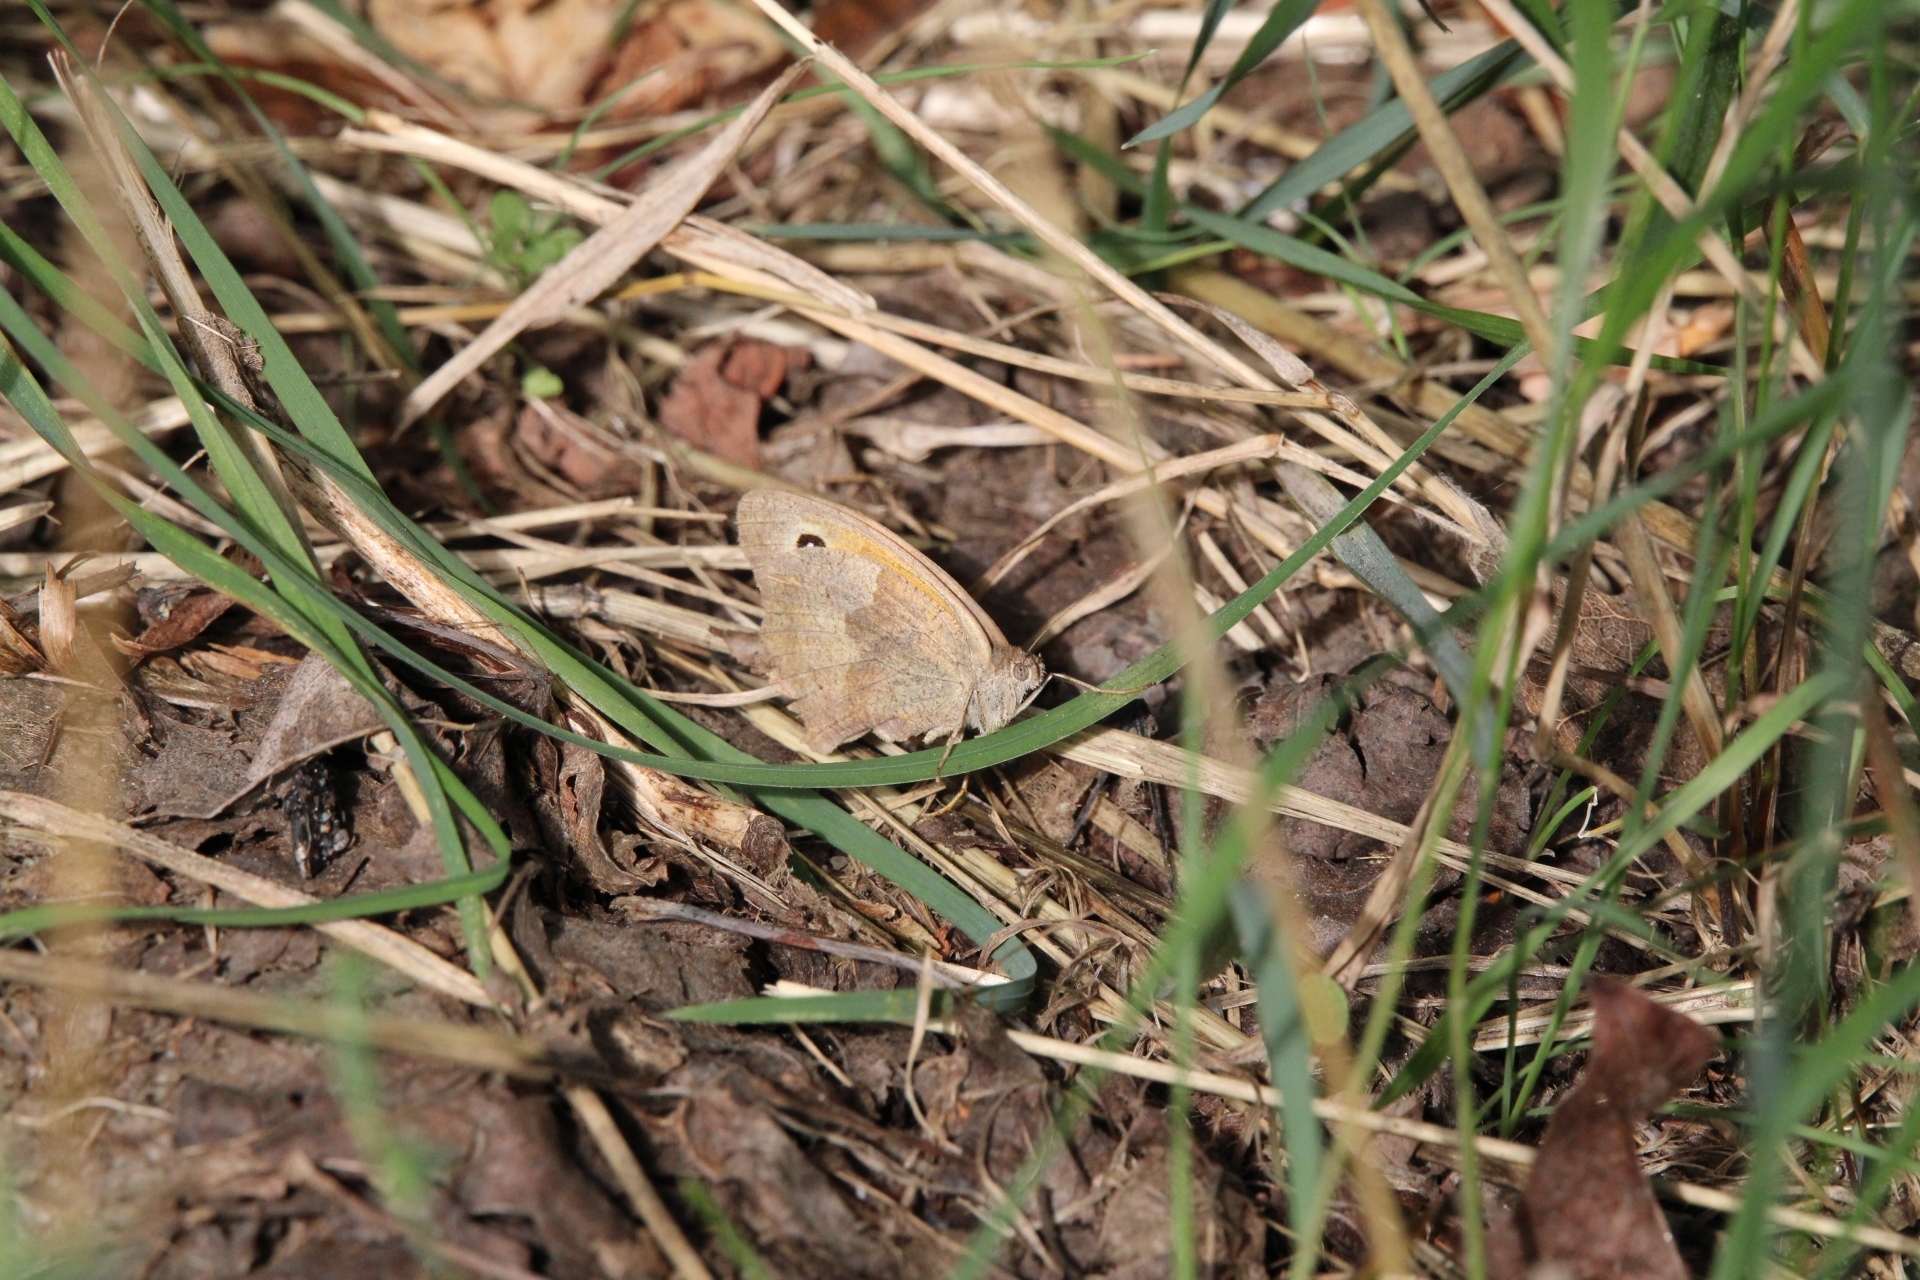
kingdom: Animalia
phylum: Arthropoda
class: Insecta
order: Lepidoptera
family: Nymphalidae
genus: Maniola
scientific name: Maniola jurtina
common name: Meadow brown
